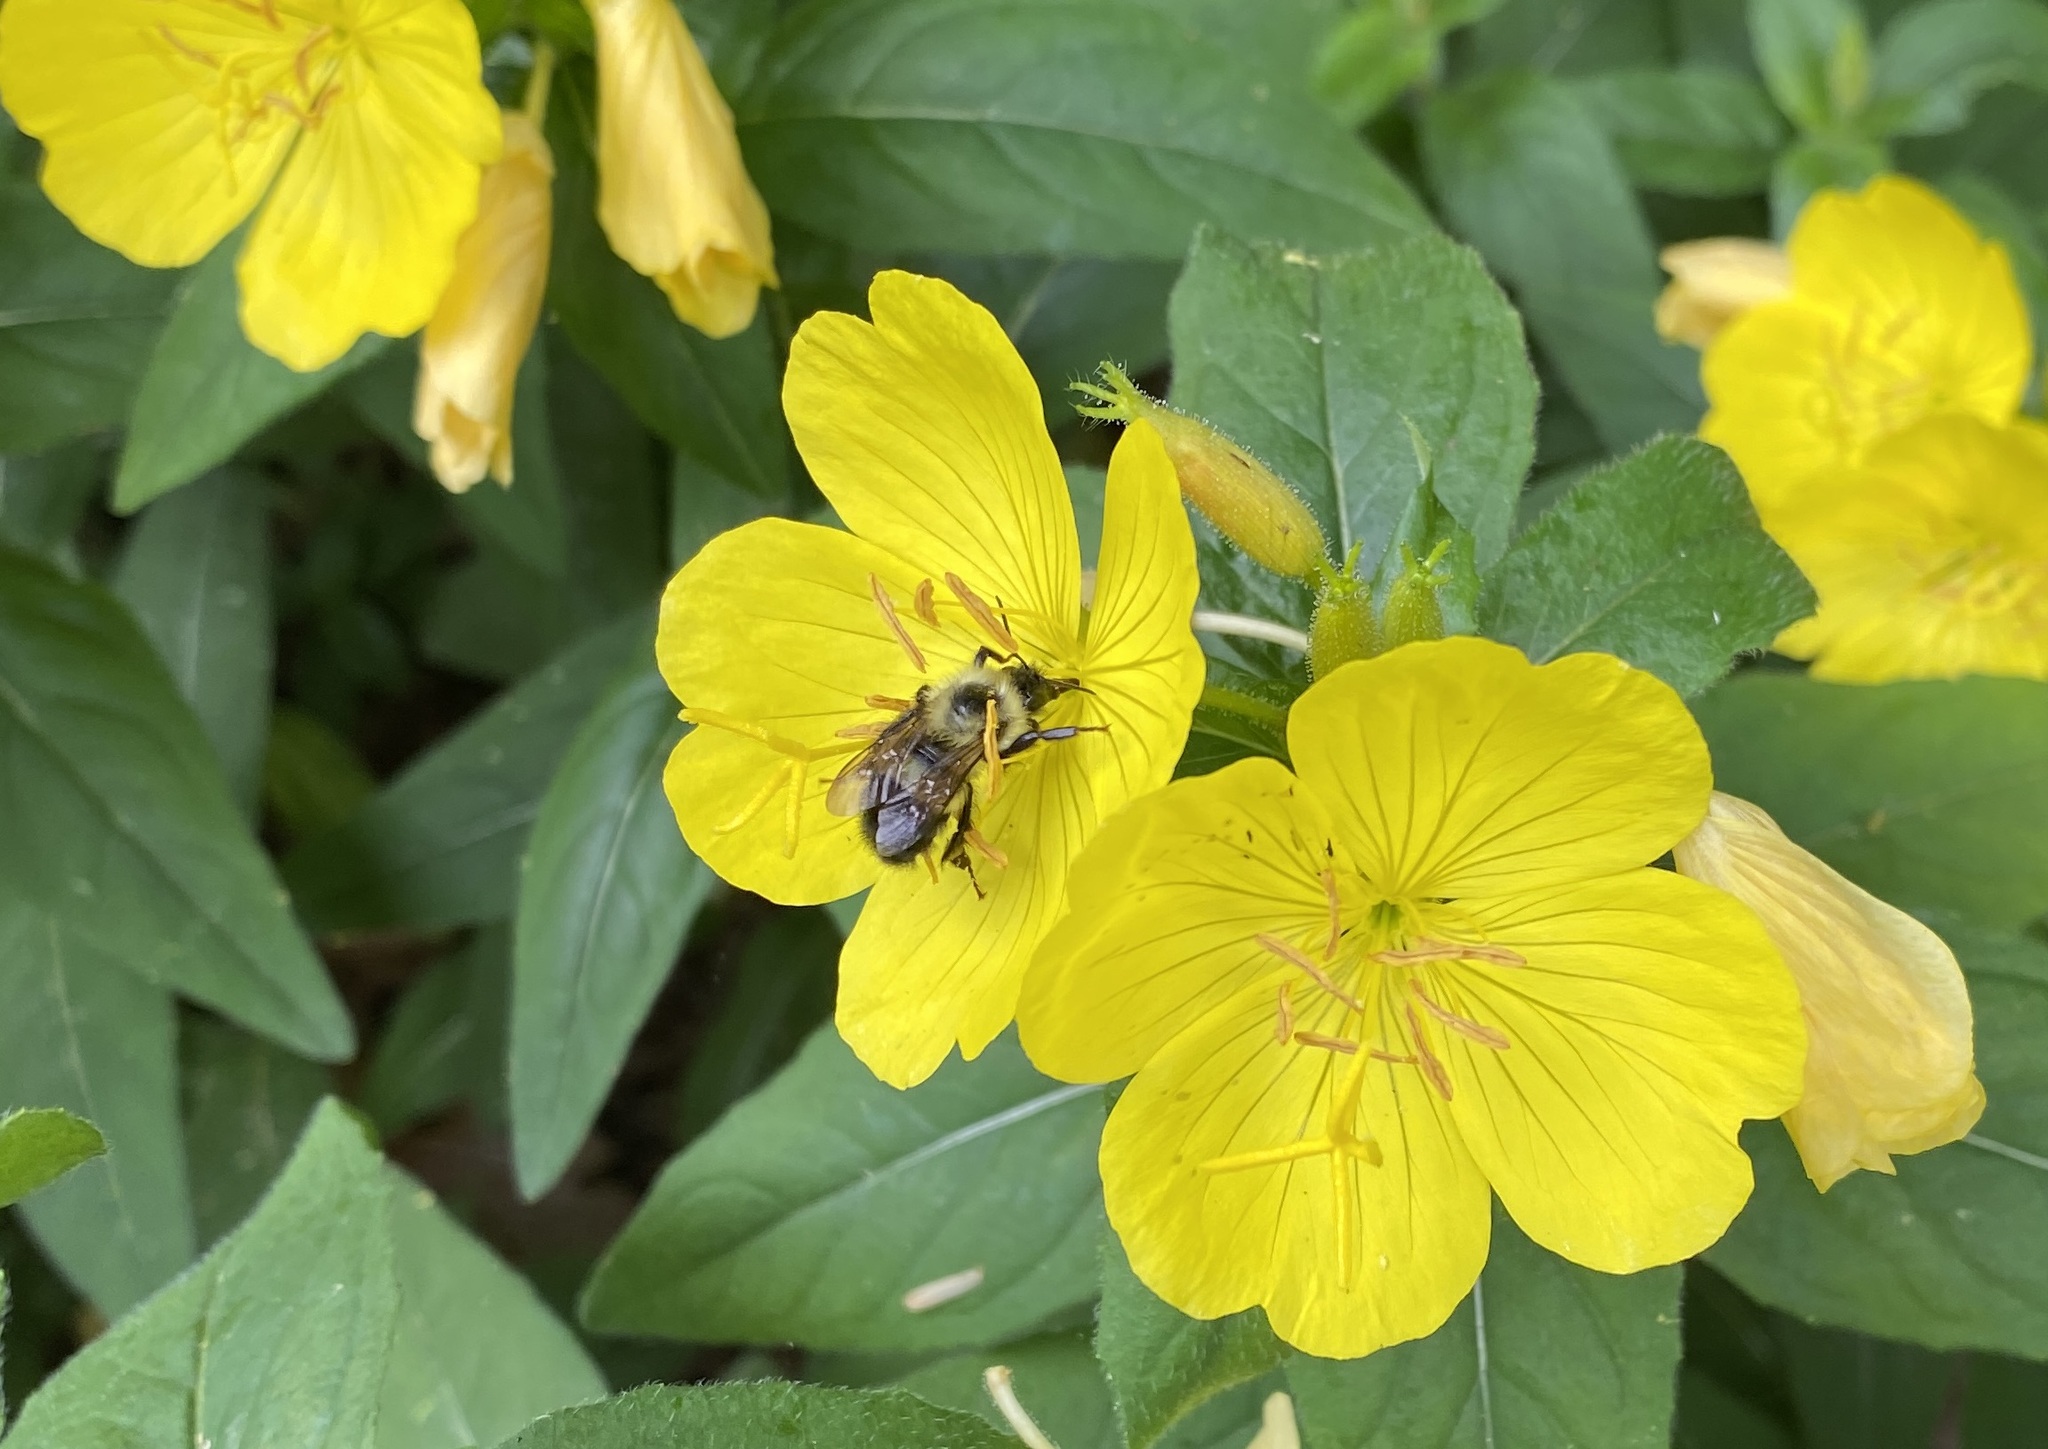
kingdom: Animalia
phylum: Arthropoda
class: Insecta
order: Hymenoptera
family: Apidae
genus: Pyrobombus
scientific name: Pyrobombus
